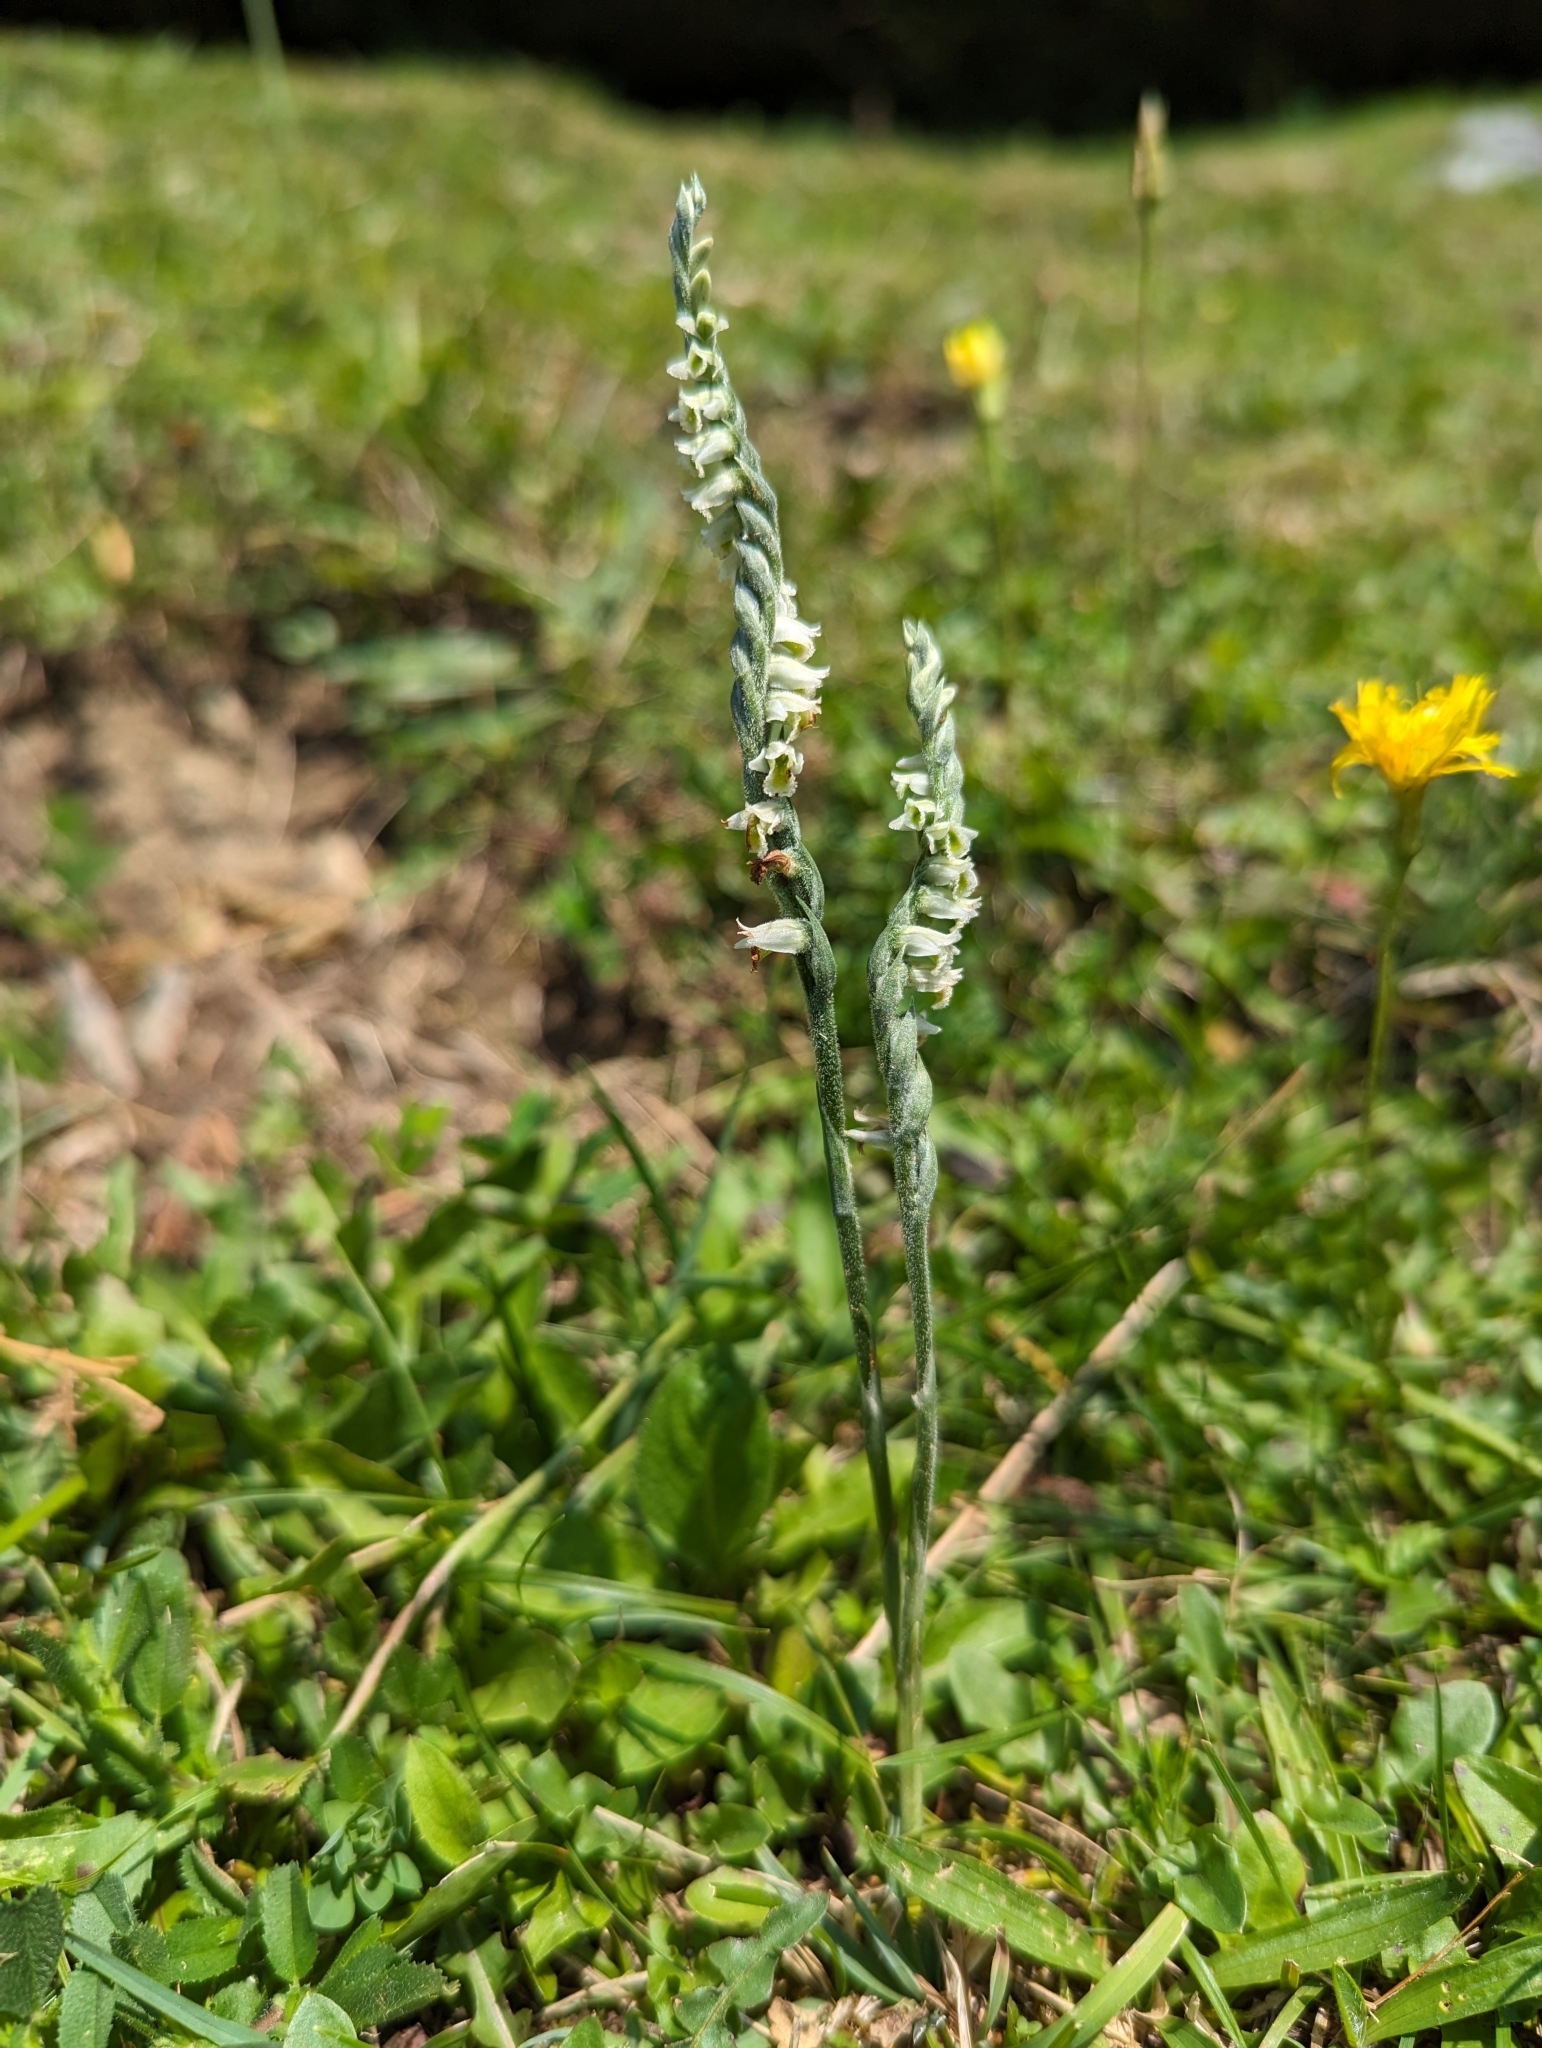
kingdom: Plantae
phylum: Tracheophyta
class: Liliopsida
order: Asparagales
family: Orchidaceae
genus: Spiranthes
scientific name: Spiranthes spiralis
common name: Autumn lady's-tresses
